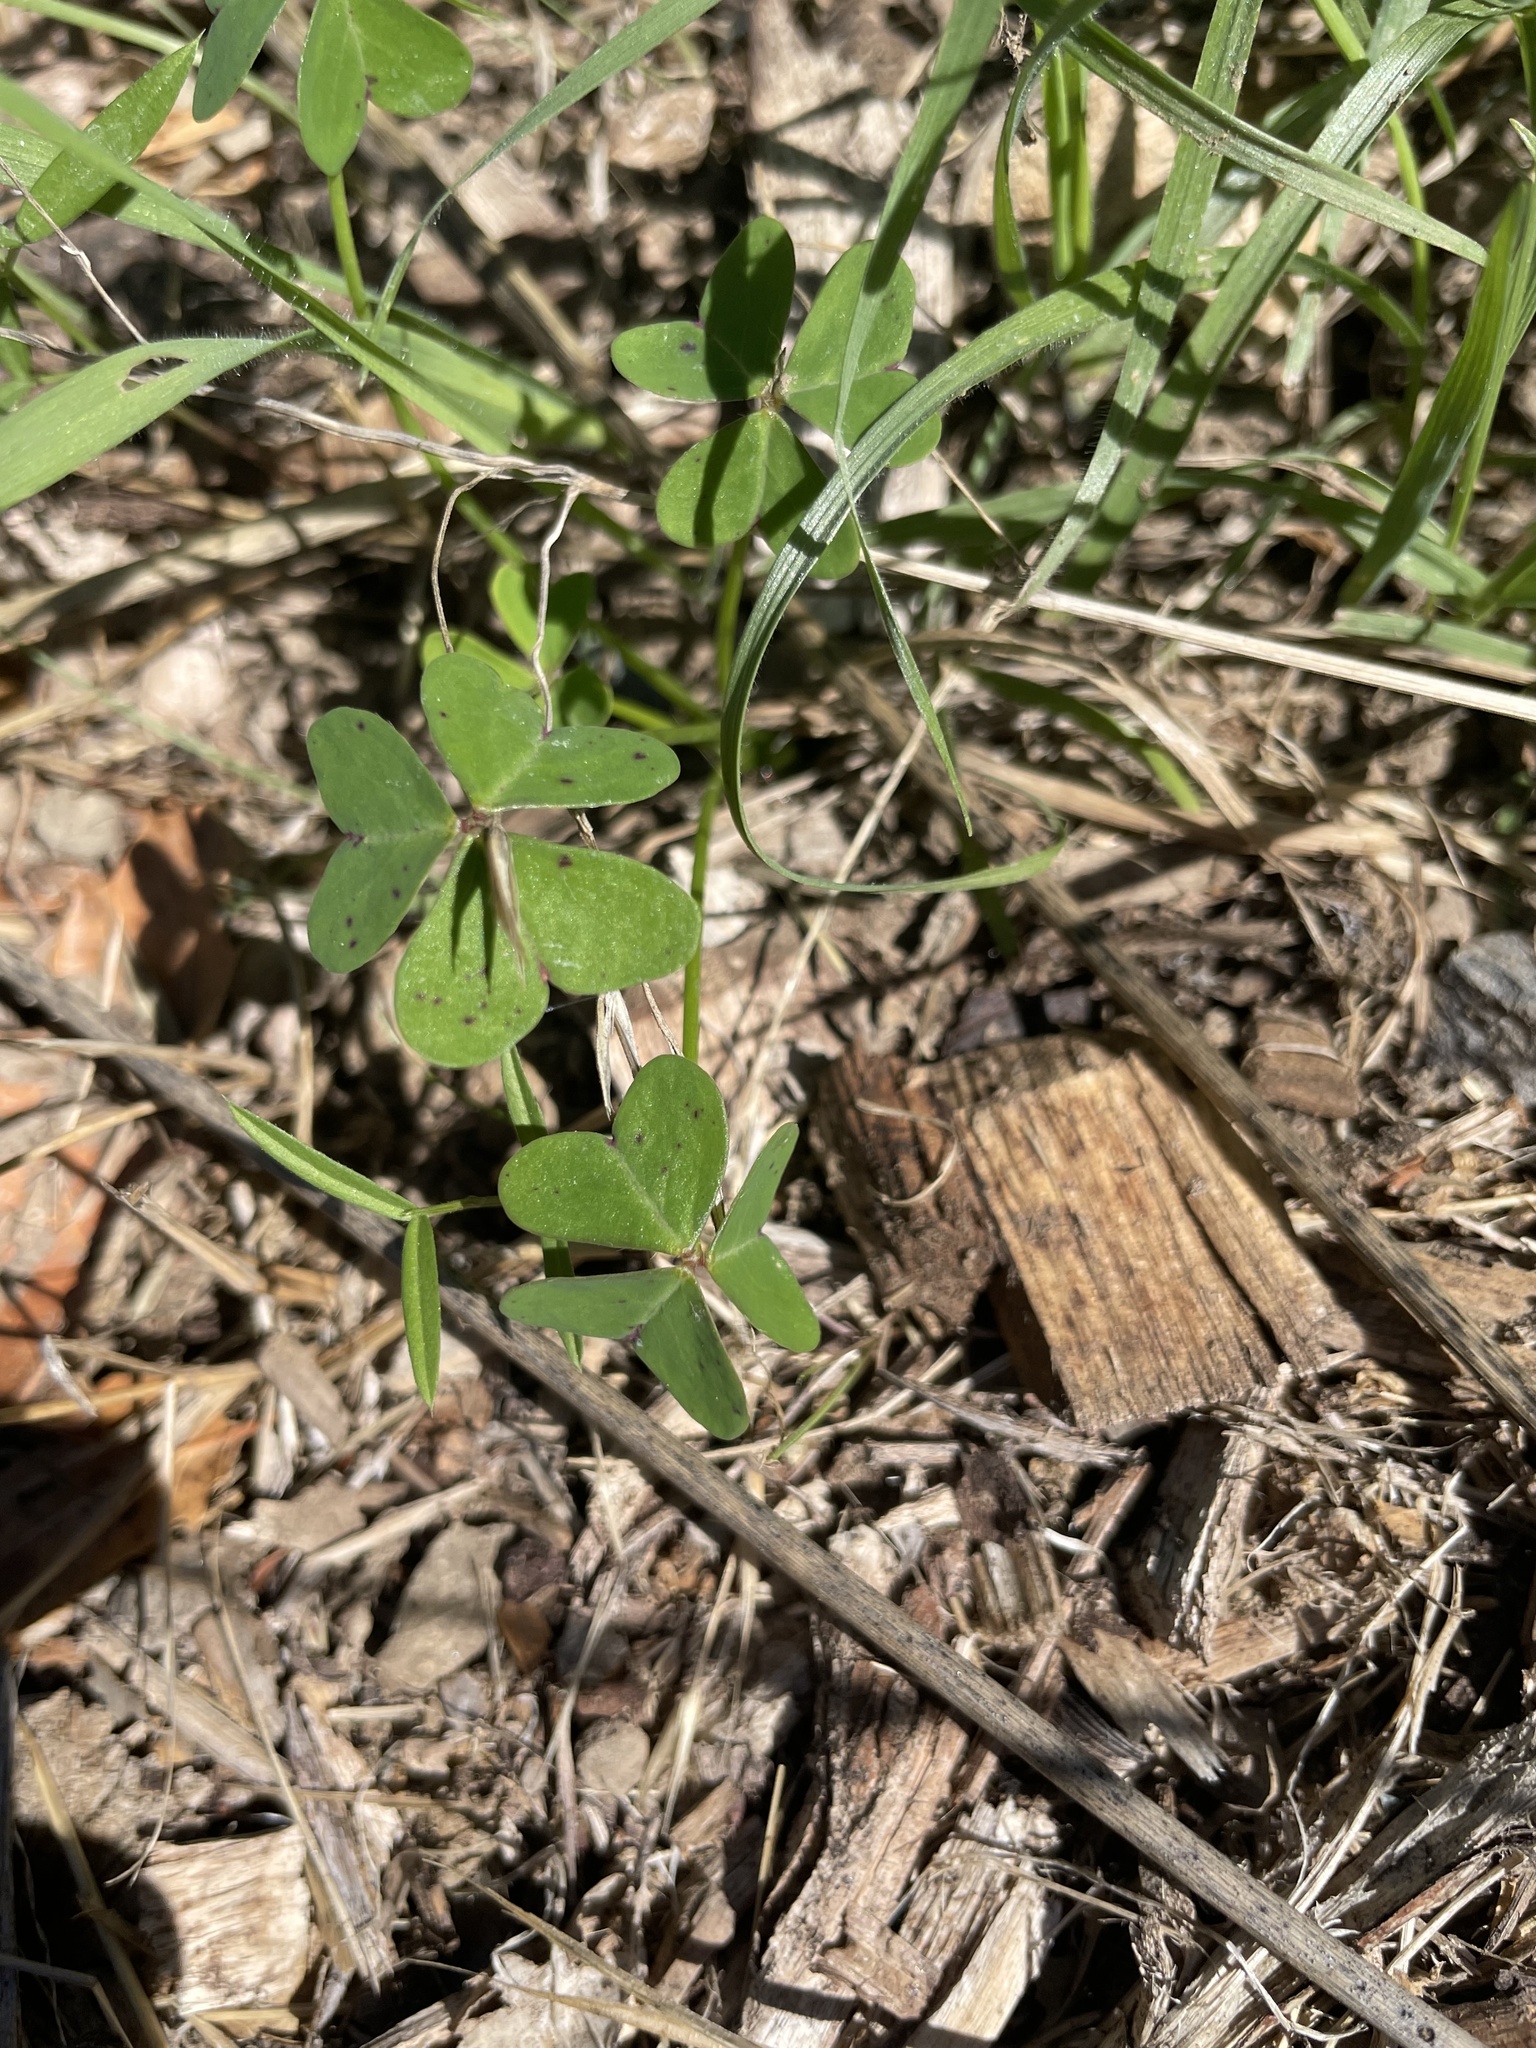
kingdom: Plantae
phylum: Tracheophyta
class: Magnoliopsida
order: Oxalidales
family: Oxalidaceae
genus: Oxalis
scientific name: Oxalis pes-caprae
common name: Bermuda-buttercup
